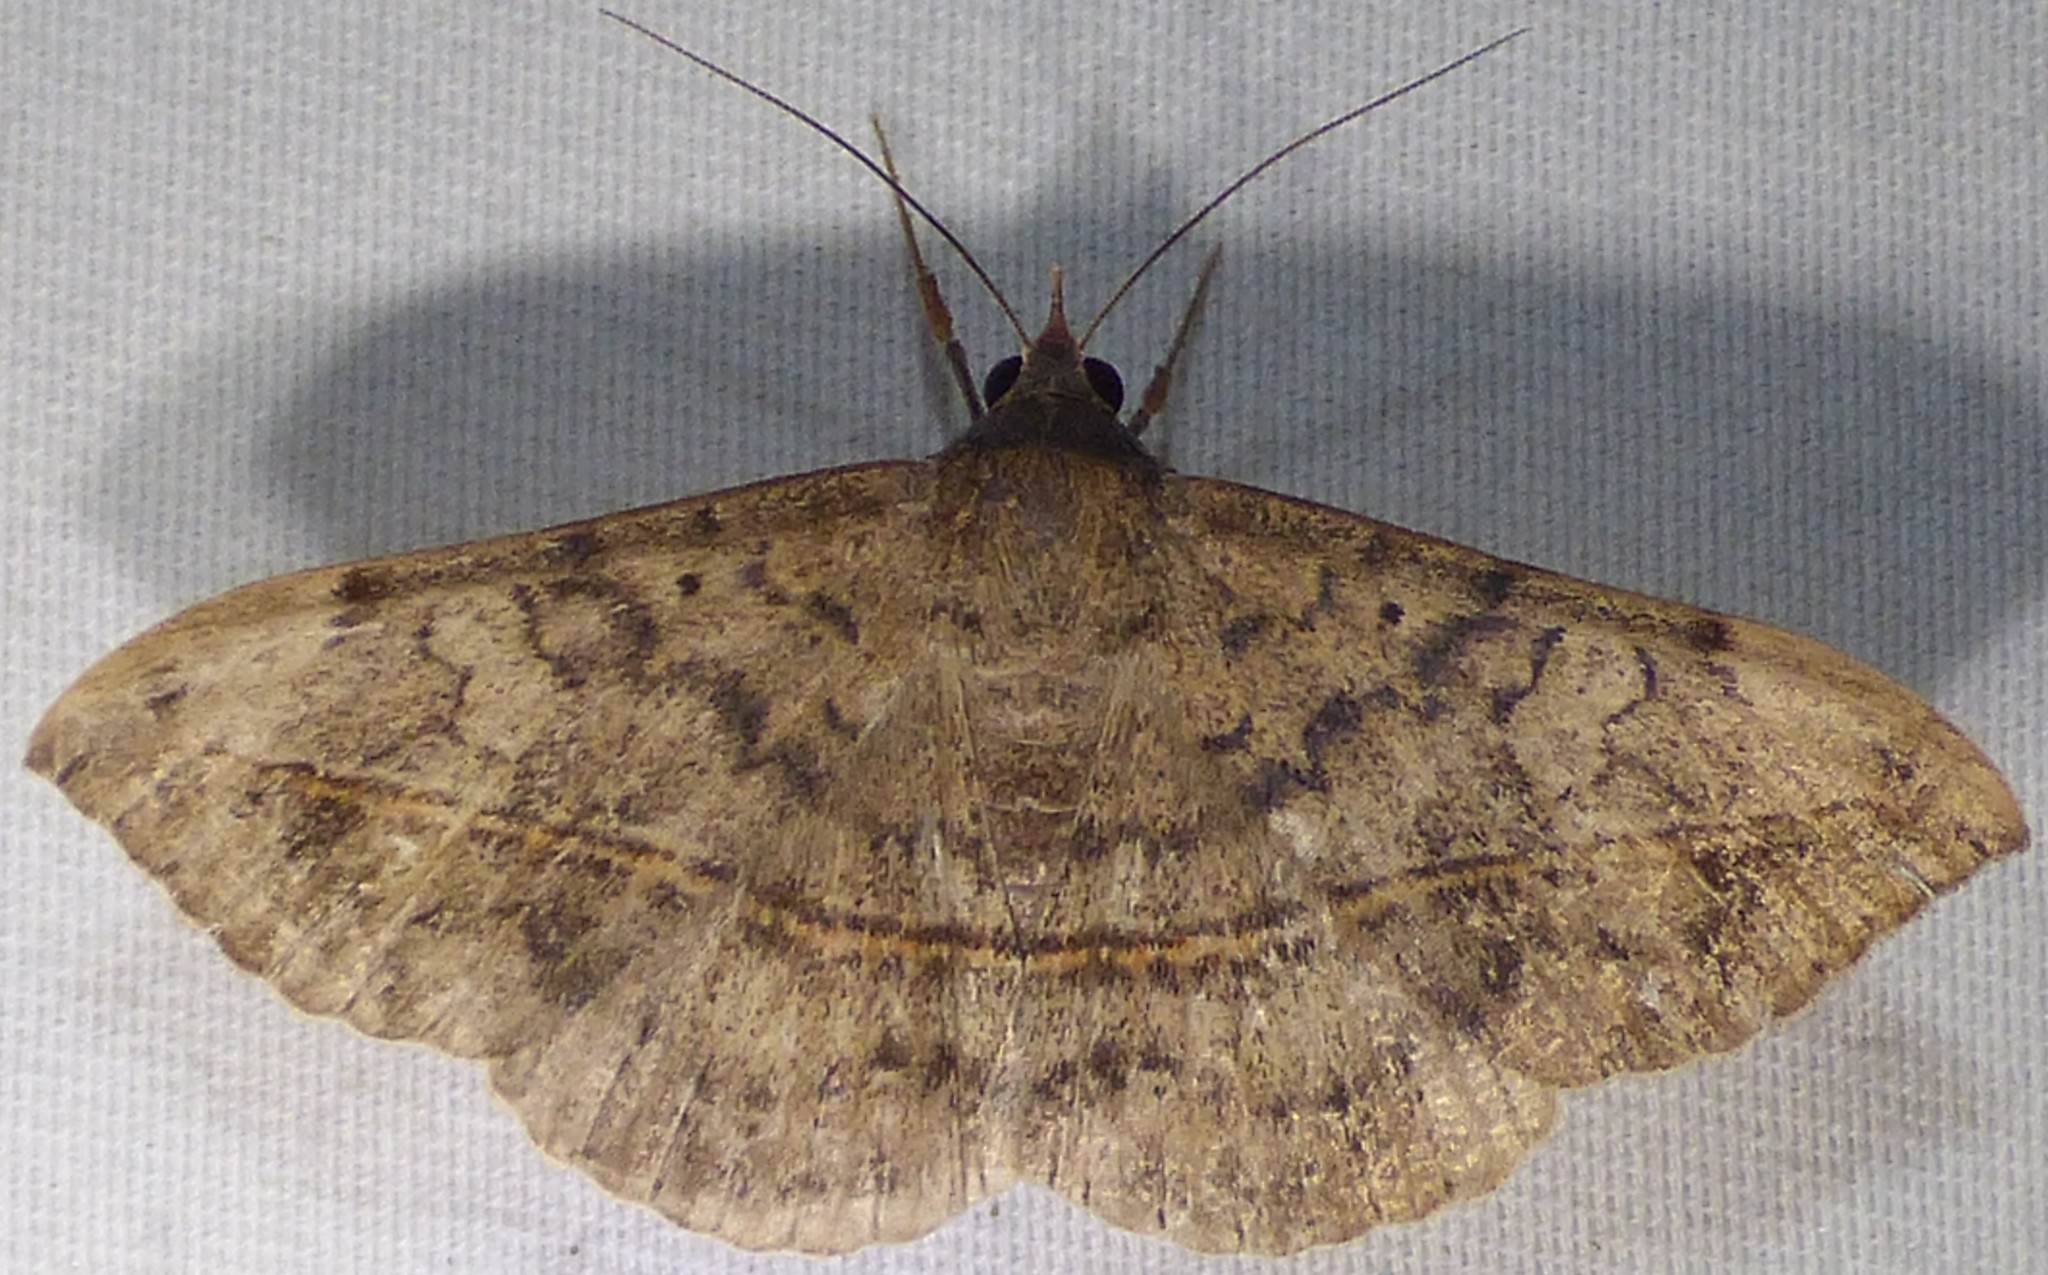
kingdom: Animalia
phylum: Arthropoda
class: Insecta
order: Lepidoptera
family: Erebidae
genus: Anticarsia
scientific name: Anticarsia gemmatalis
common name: Cutworm moth
